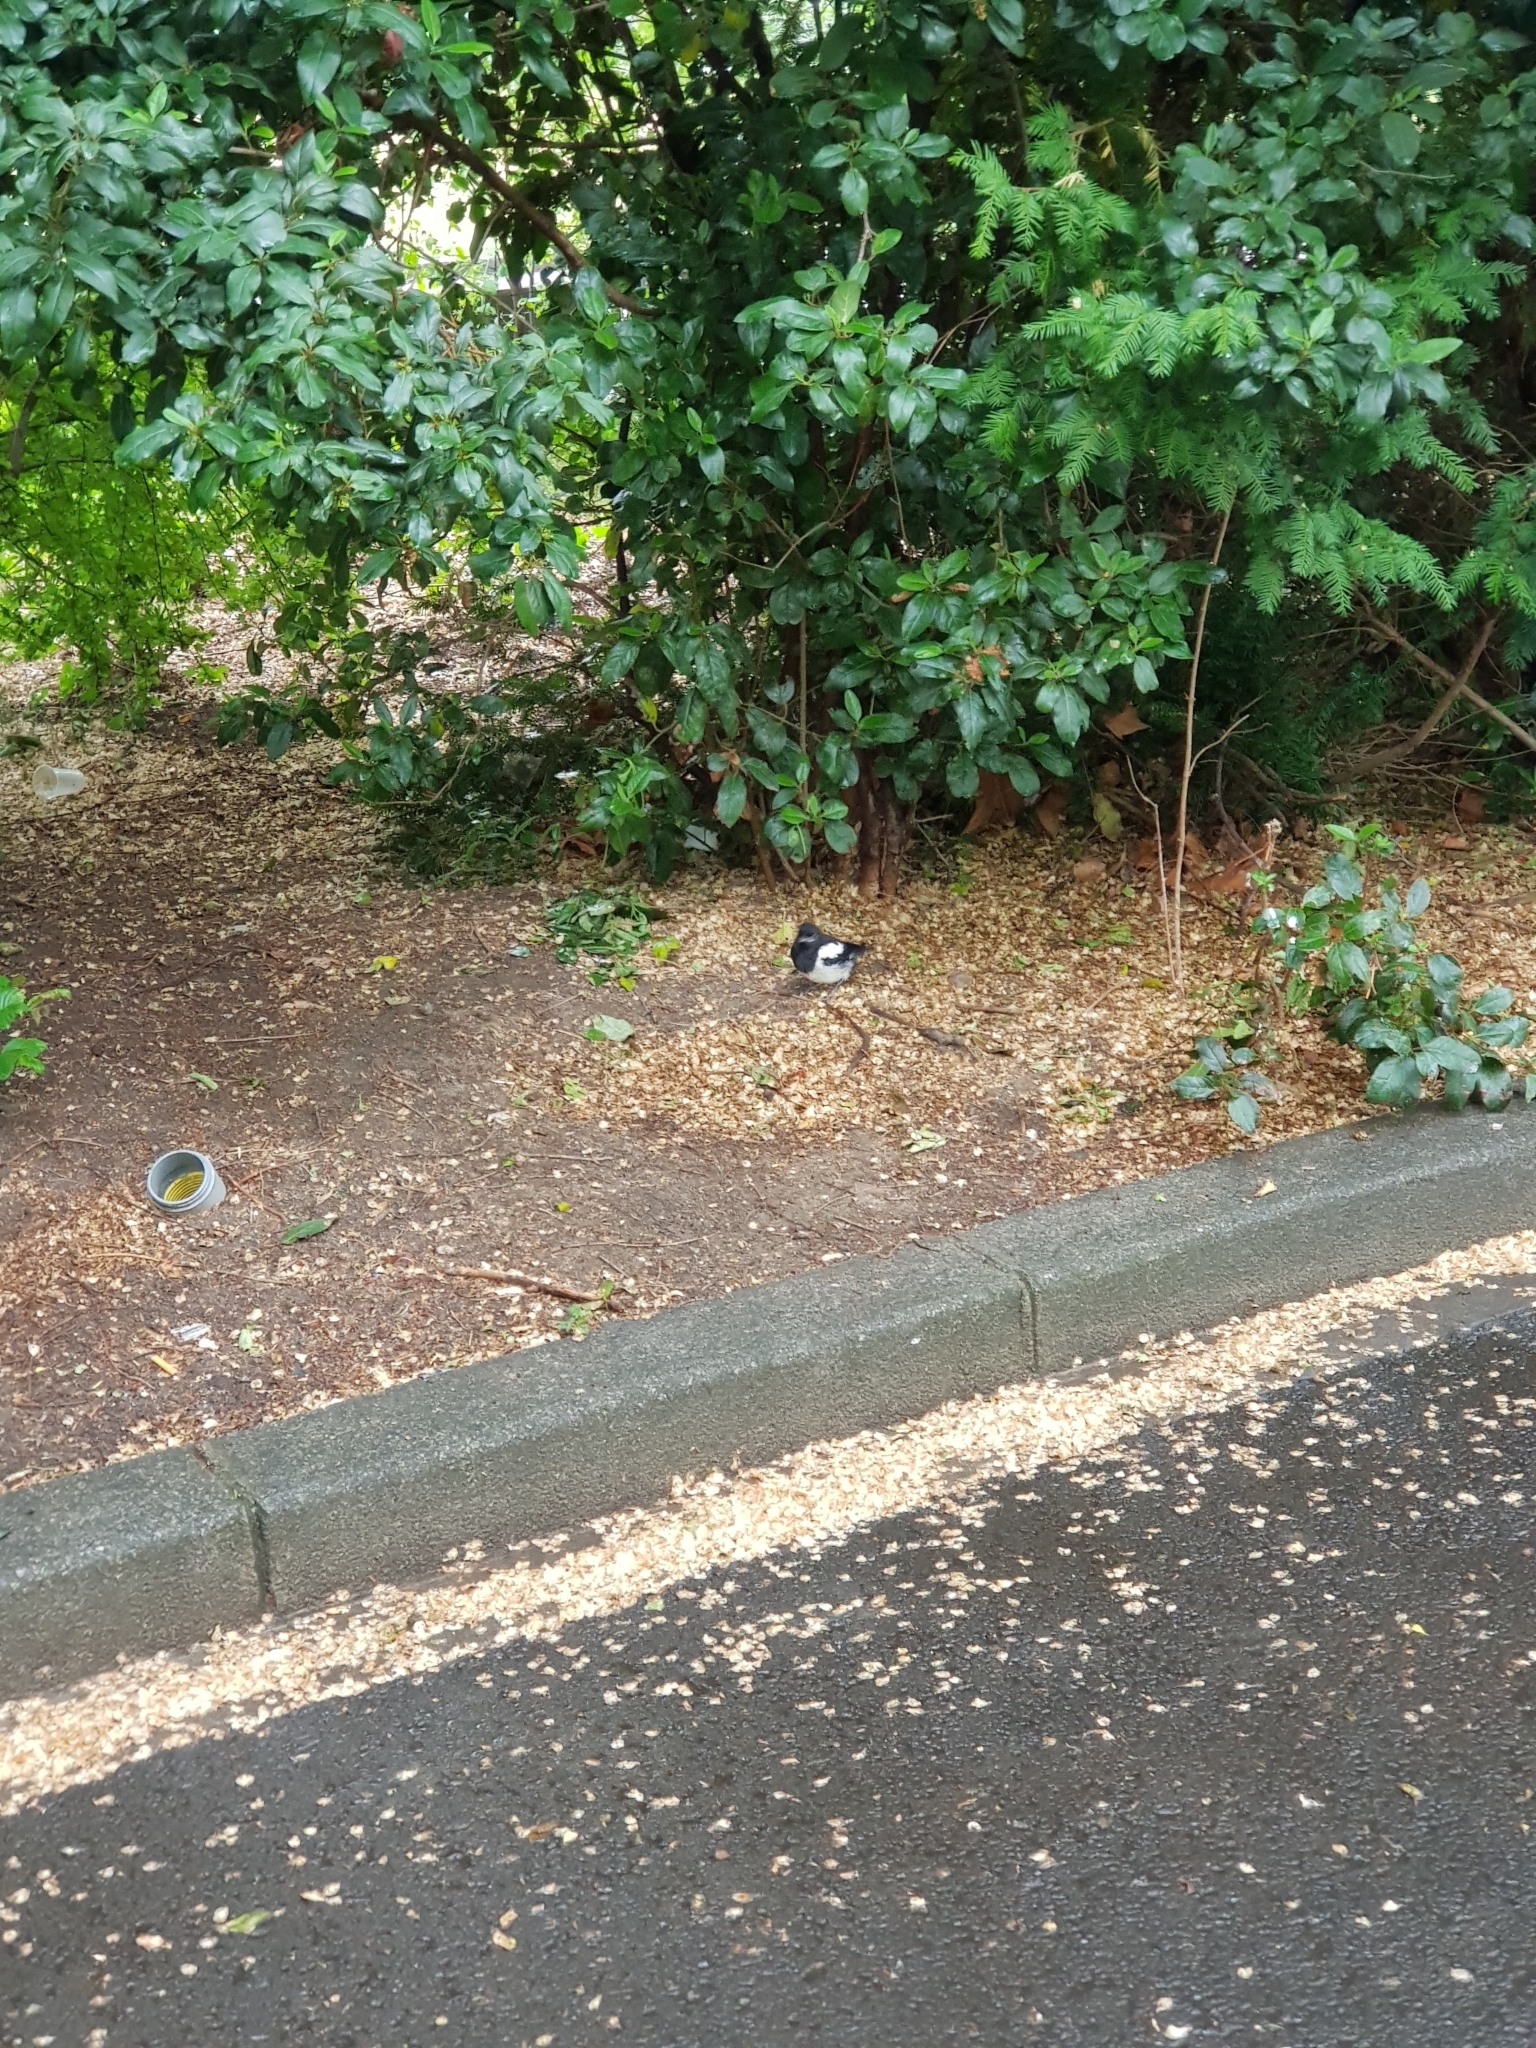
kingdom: Animalia
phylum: Chordata
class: Aves
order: Passeriformes
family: Corvidae
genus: Pica
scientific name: Pica pica
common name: Eurasian magpie
